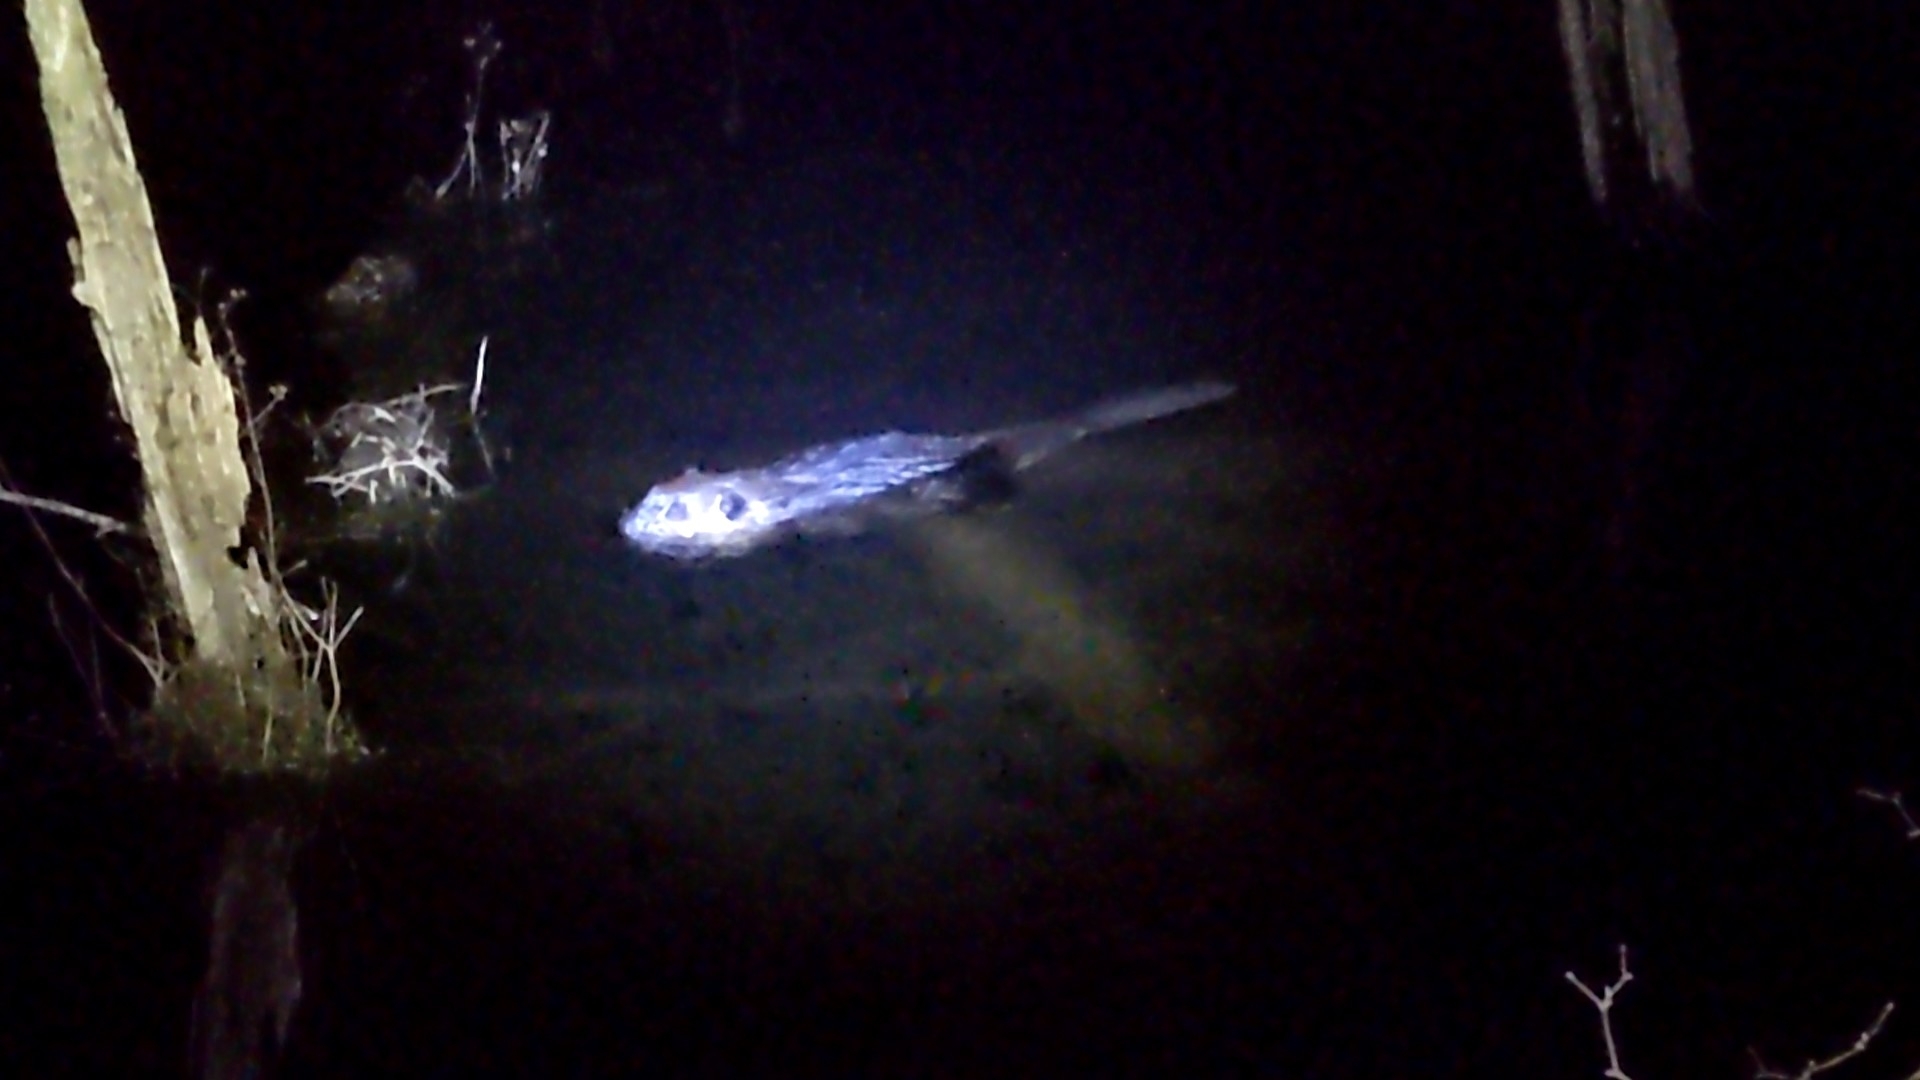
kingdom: Animalia
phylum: Chordata
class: Mammalia
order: Rodentia
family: Castoridae
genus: Castor
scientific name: Castor canadensis
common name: American beaver
